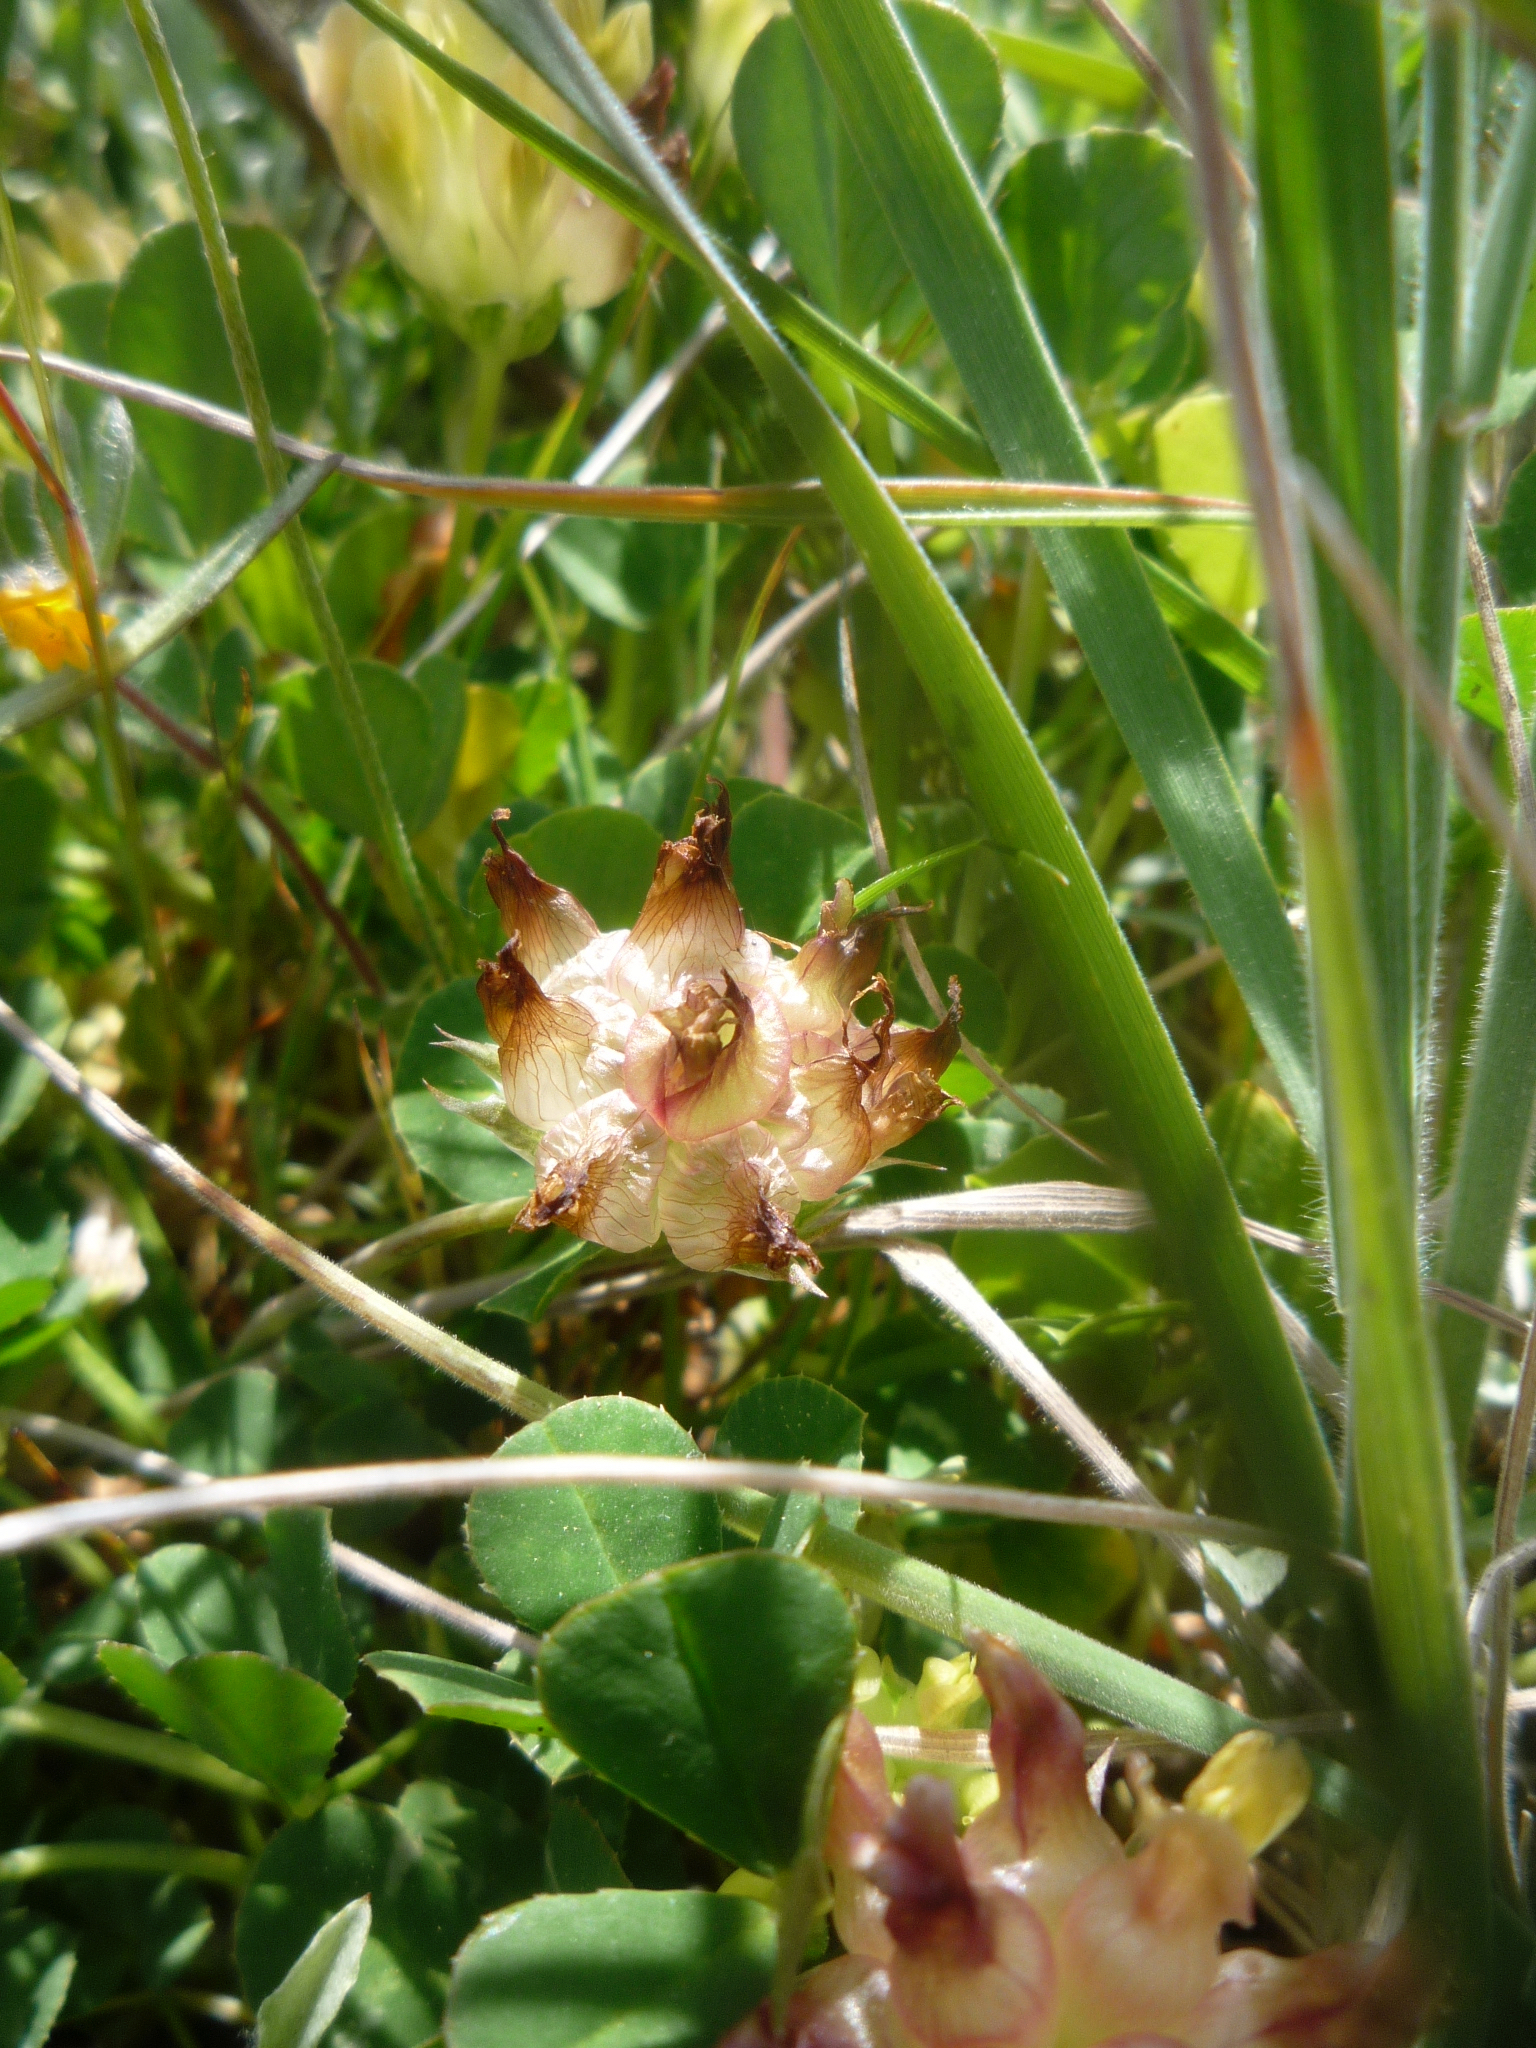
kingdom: Plantae
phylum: Tracheophyta
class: Magnoliopsida
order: Fabales
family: Fabaceae
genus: Trifolium
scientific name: Trifolium fucatum
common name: Puff clover
